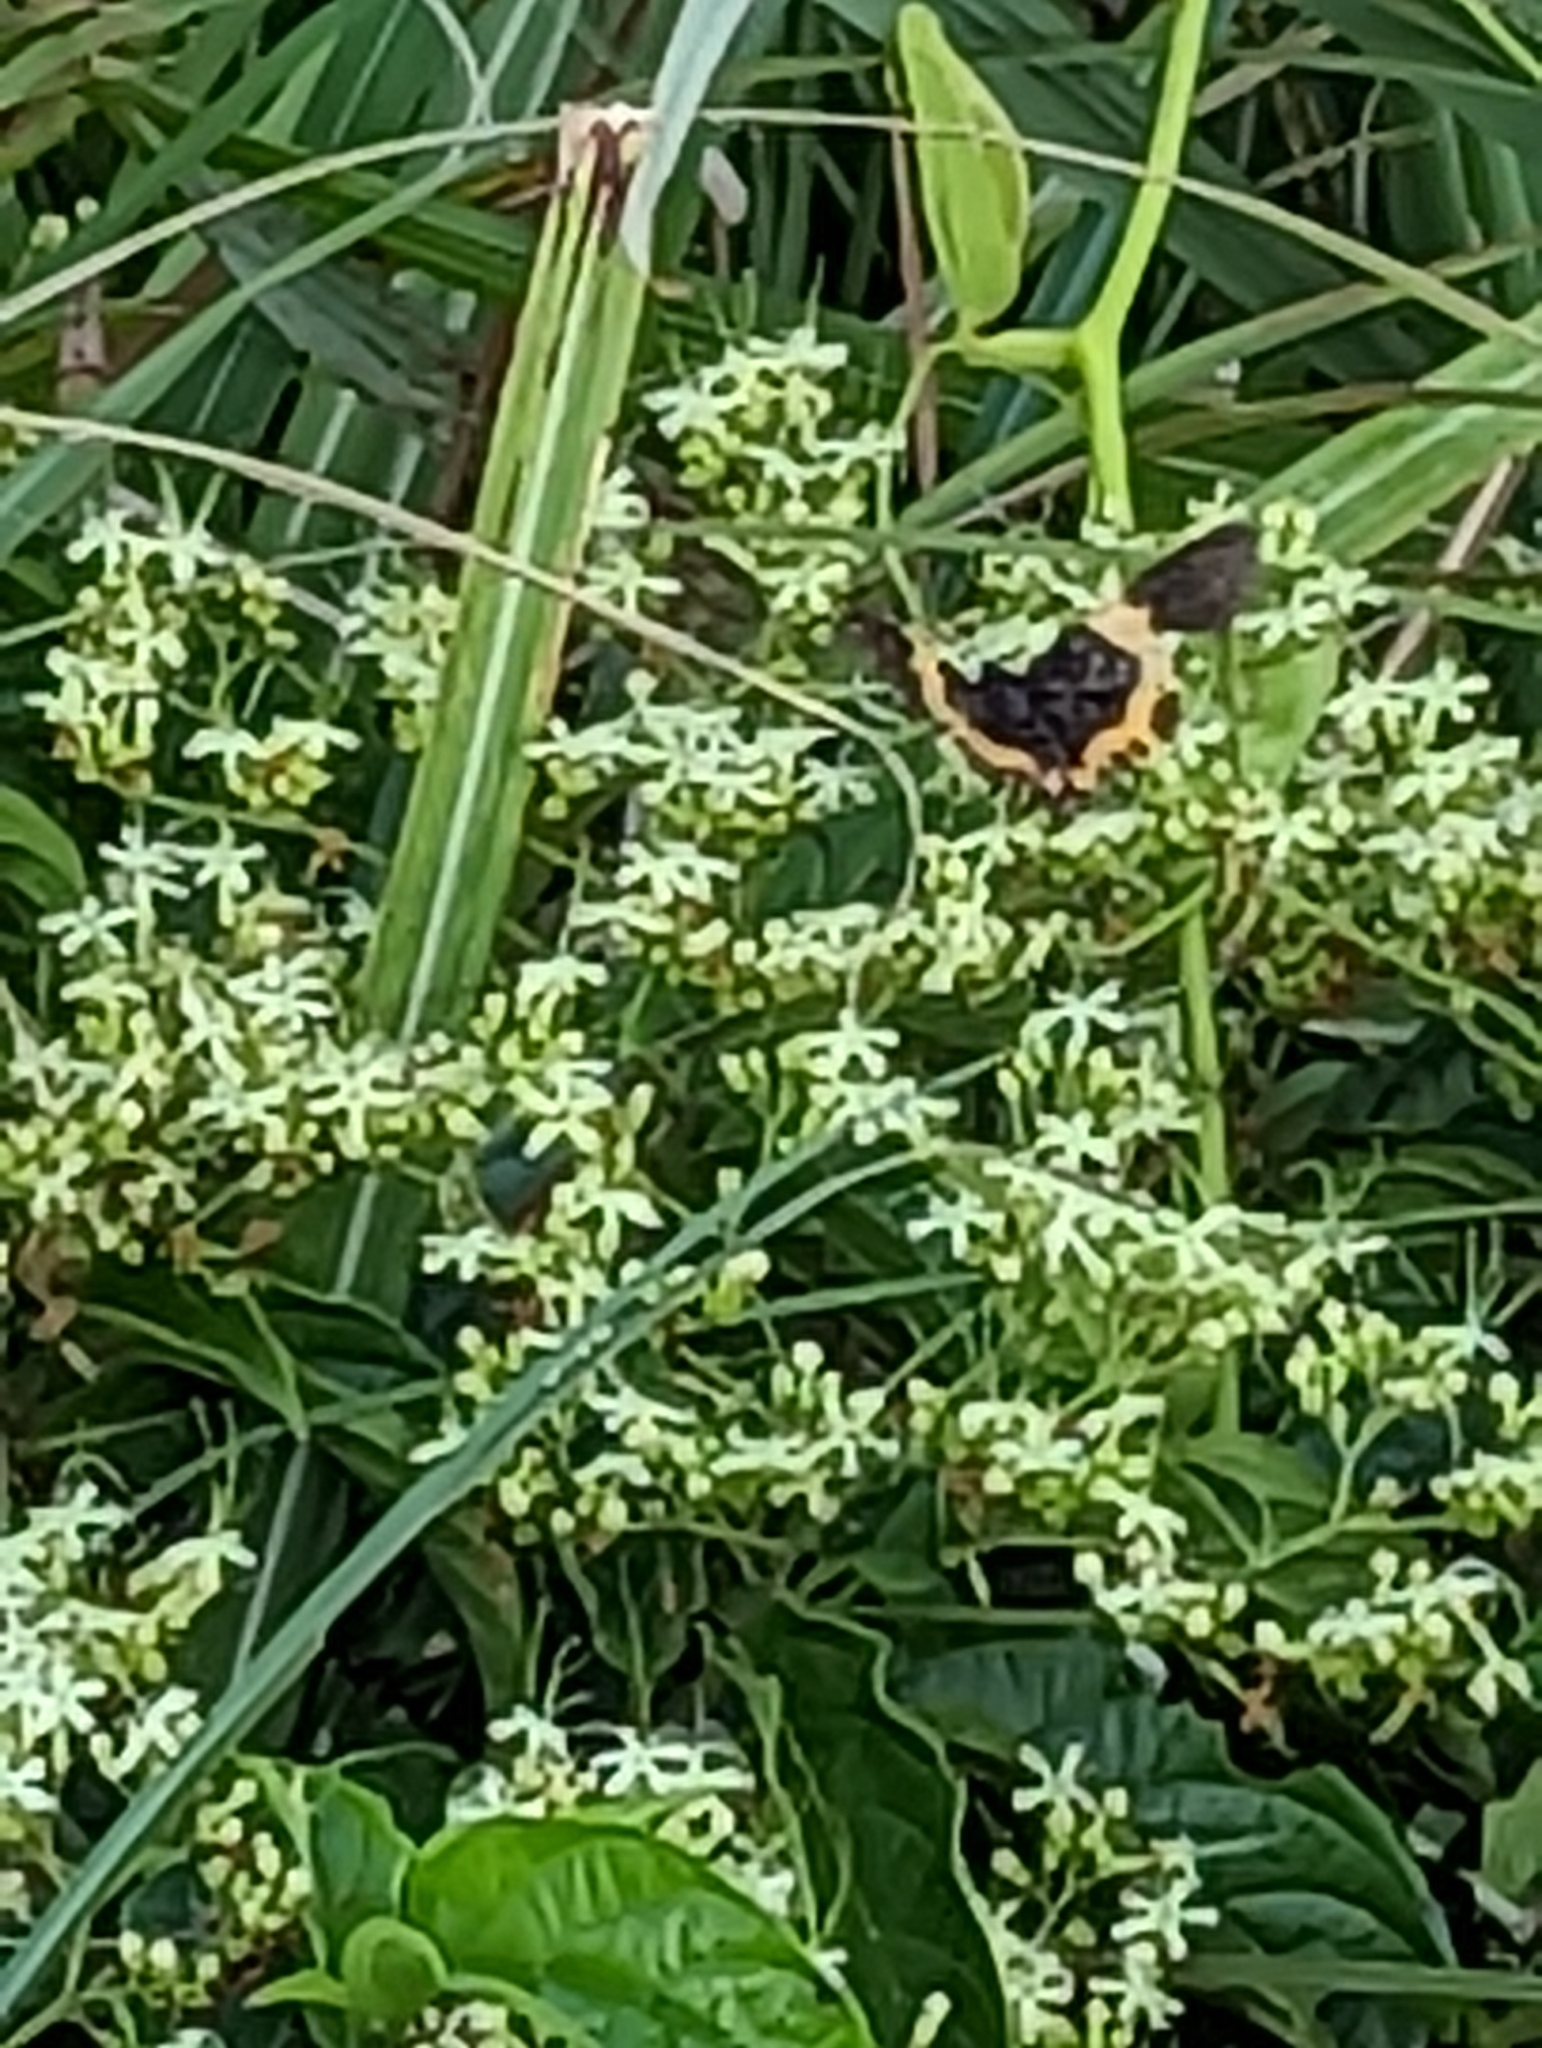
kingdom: Animalia
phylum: Arthropoda
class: Insecta
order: Lepidoptera
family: Geometridae
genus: Milionia
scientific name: Milionia basalis
